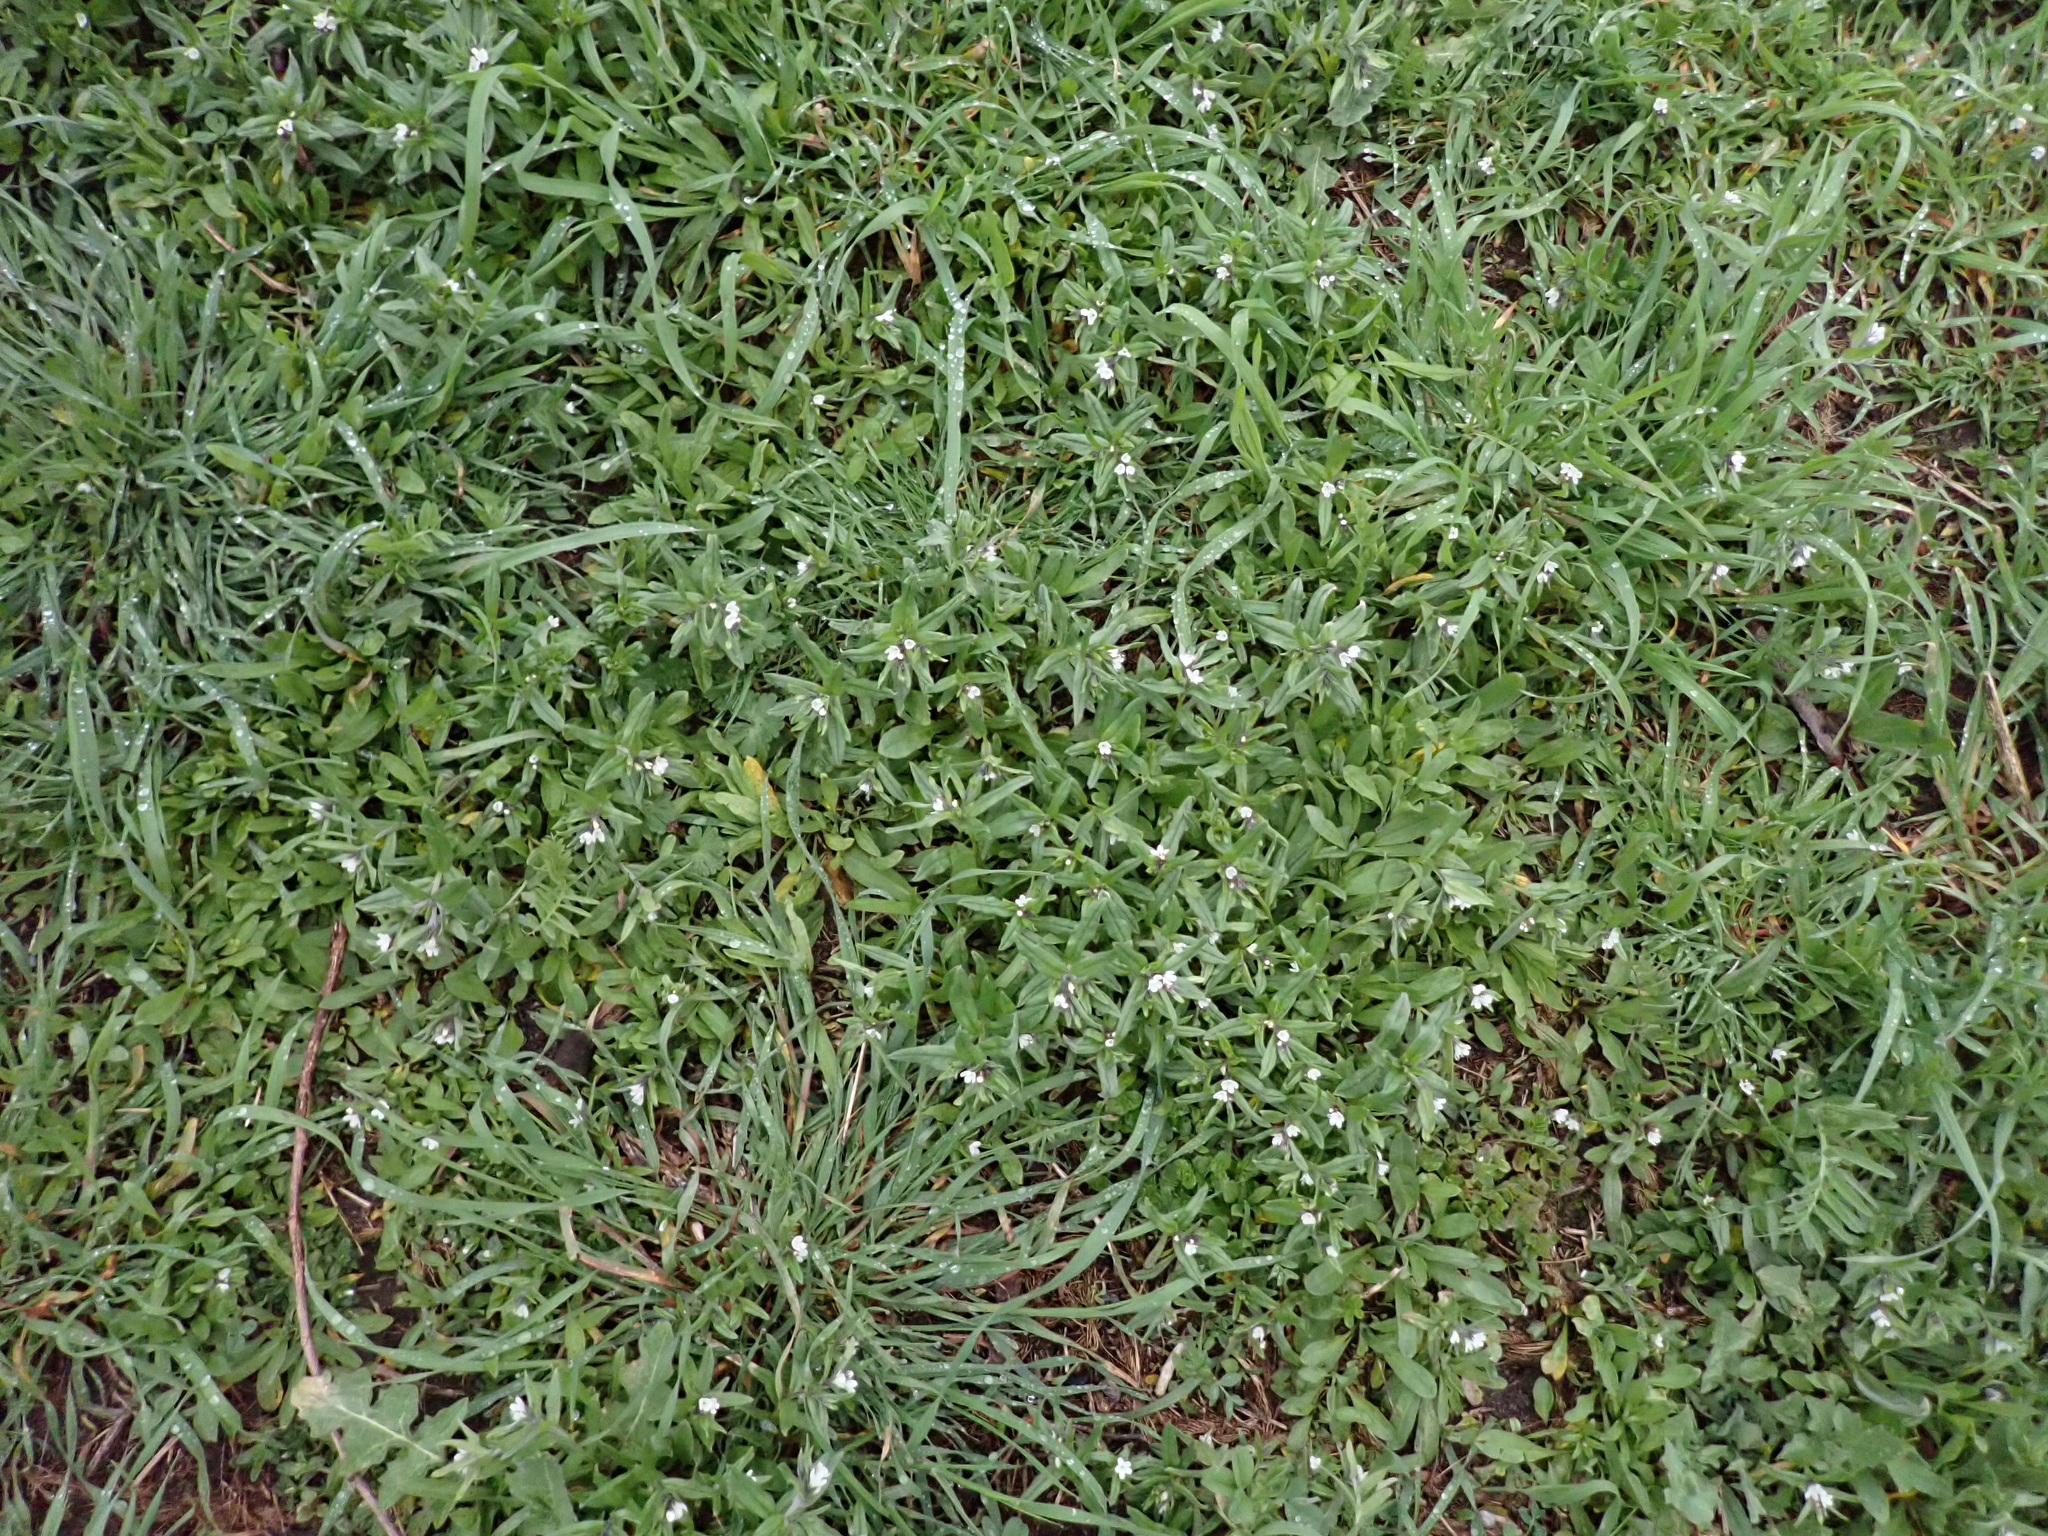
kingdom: Plantae
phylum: Tracheophyta
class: Magnoliopsida
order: Boraginales
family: Boraginaceae
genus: Buglossoides
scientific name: Buglossoides arvensis
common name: Corn gromwell
